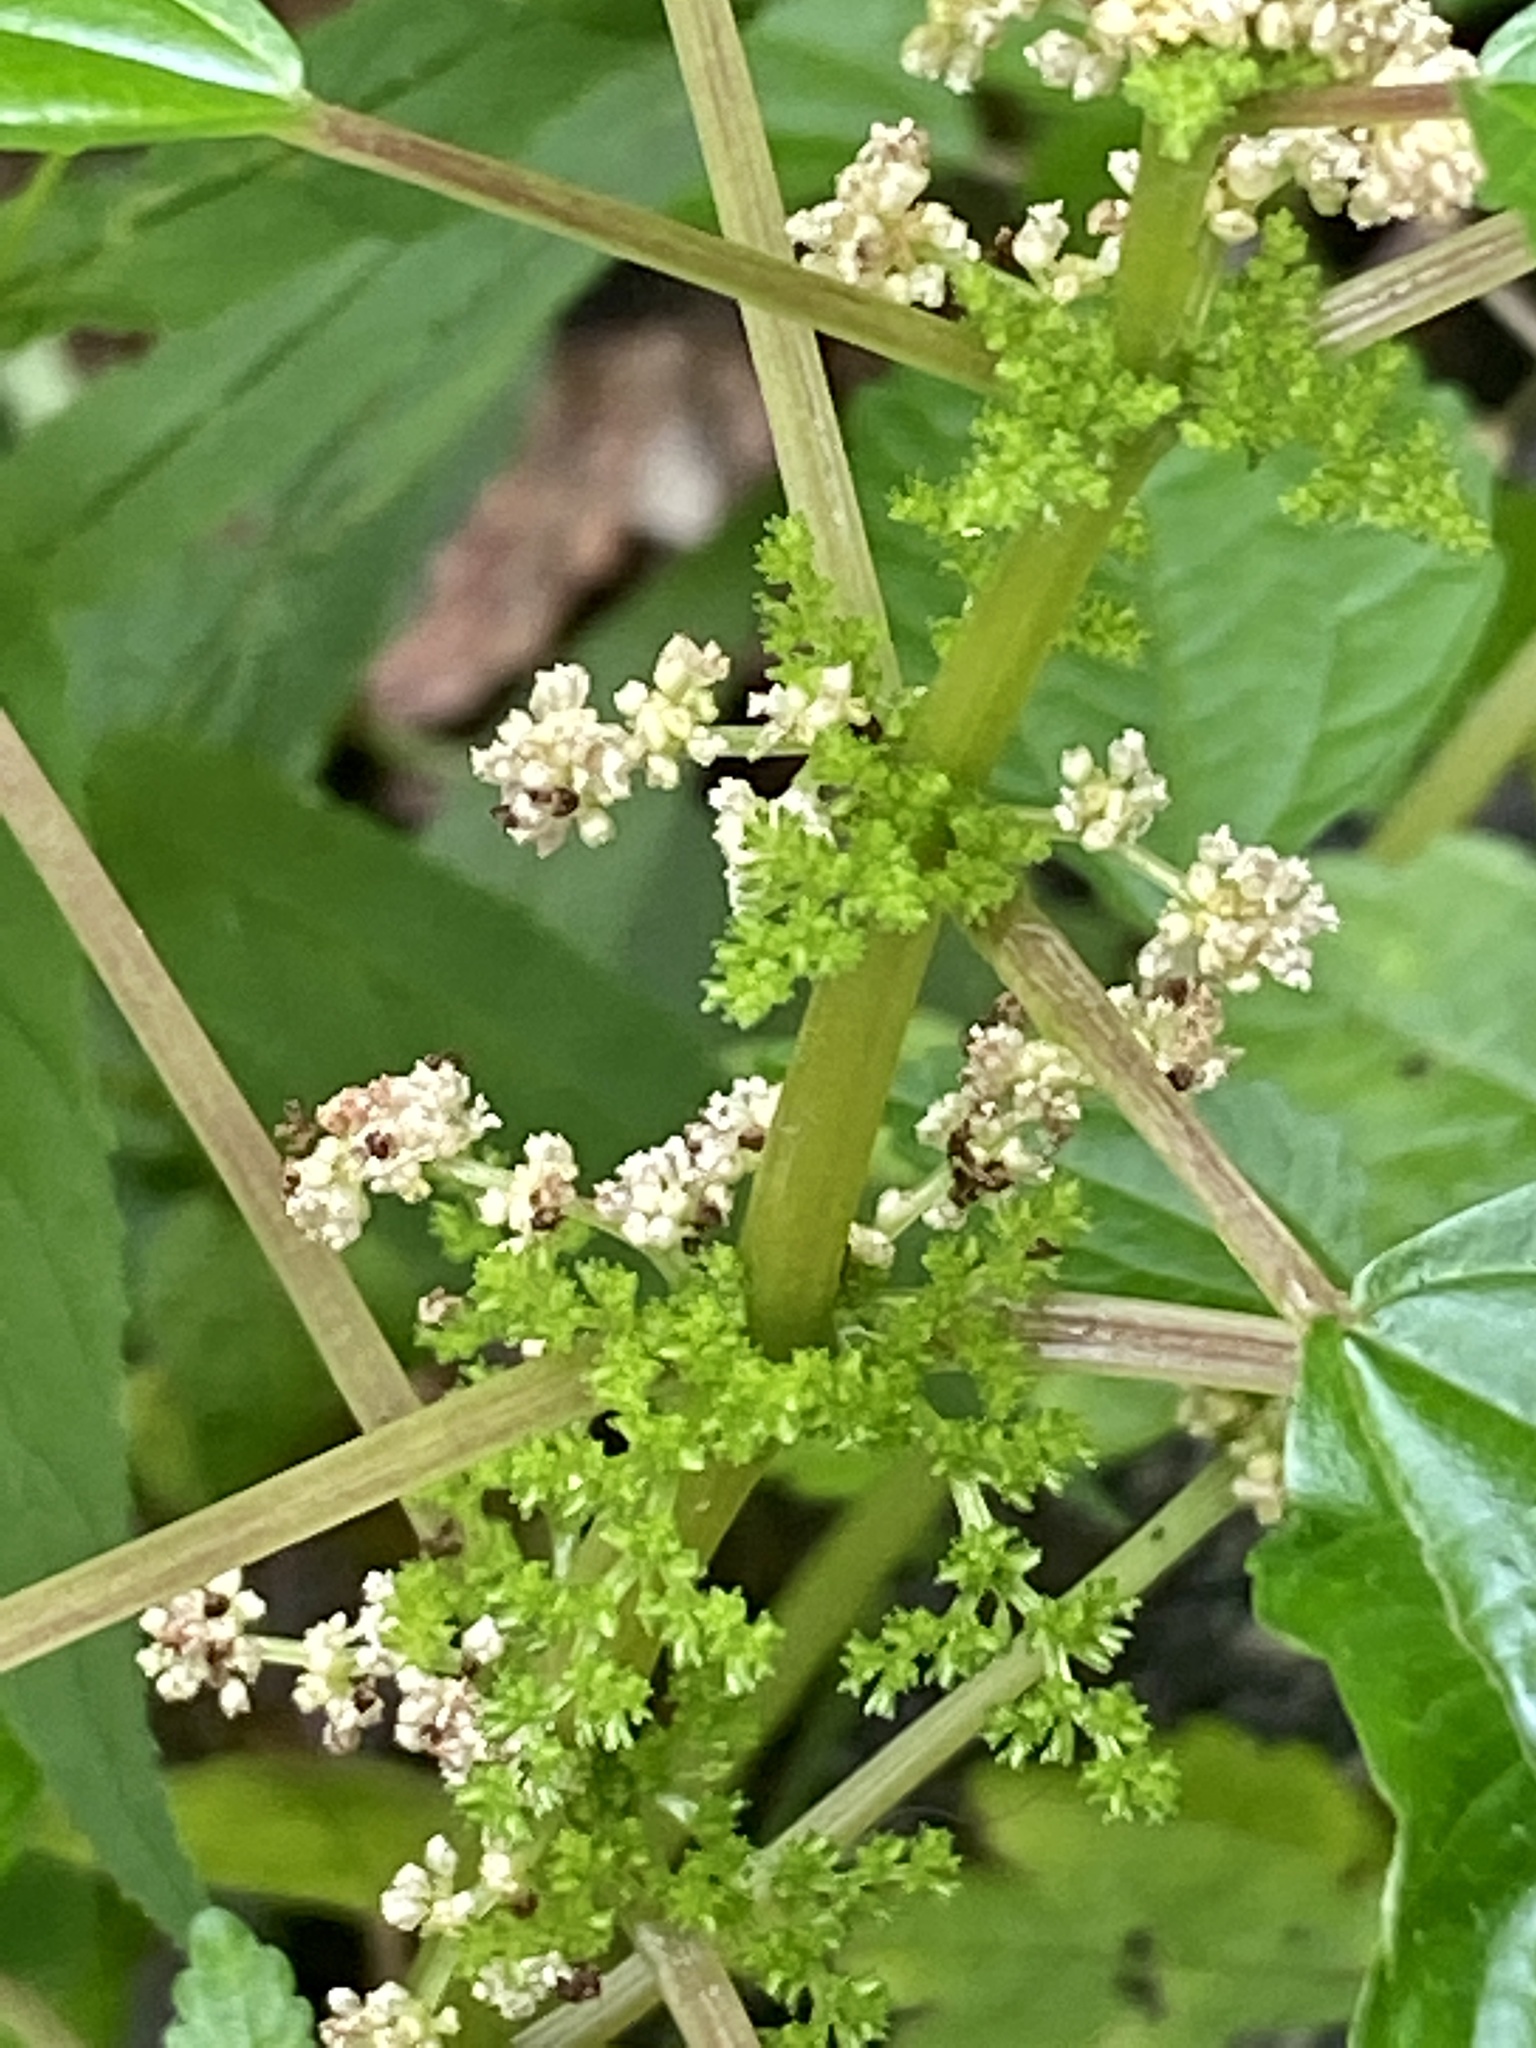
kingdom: Plantae
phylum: Tracheophyta
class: Magnoliopsida
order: Rosales
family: Urticaceae
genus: Pilea
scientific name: Pilea pumila
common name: Clearweed
